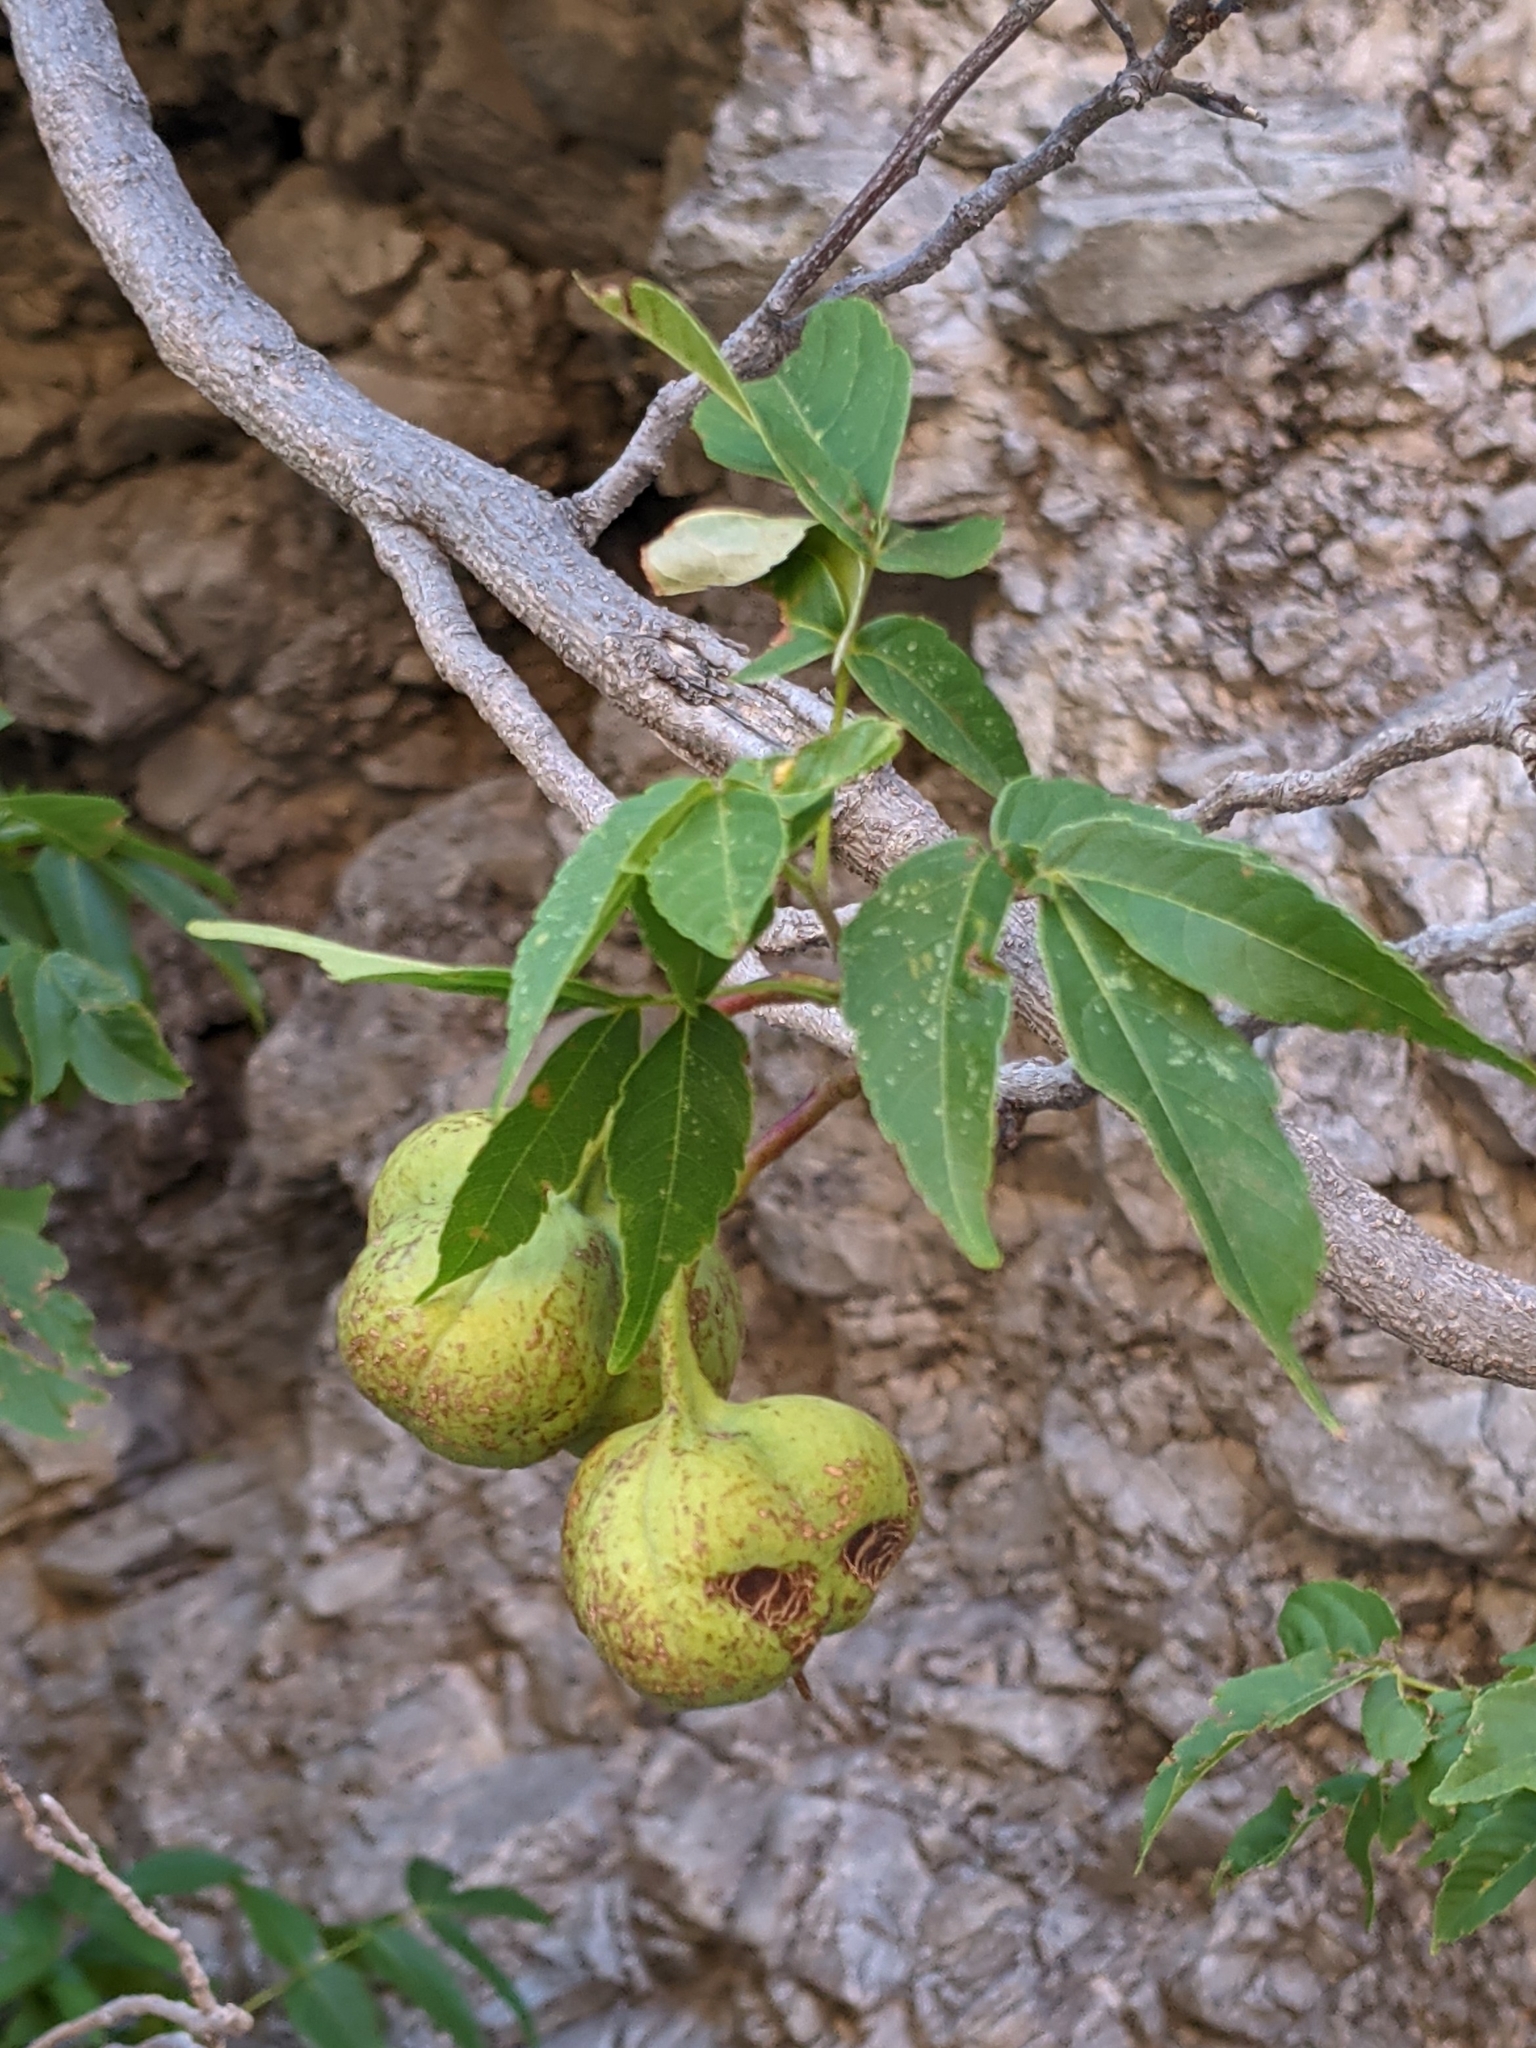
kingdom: Plantae
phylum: Tracheophyta
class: Magnoliopsida
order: Sapindales
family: Sapindaceae
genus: Ungnadia
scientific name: Ungnadia speciosa
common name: Texas-buckeye
